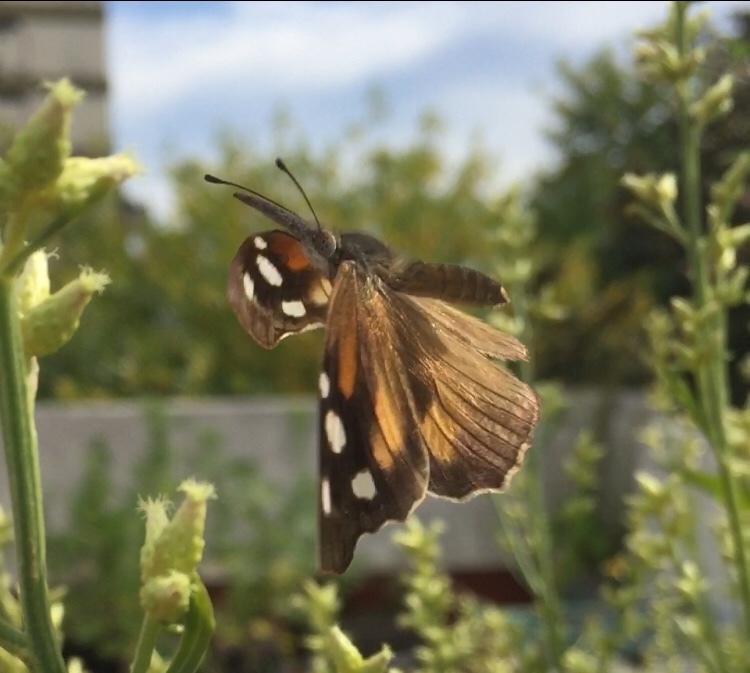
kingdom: Animalia
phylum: Arthropoda
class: Insecta
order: Lepidoptera
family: Nymphalidae
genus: Libytheana
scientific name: Libytheana carinenta
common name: American snout
